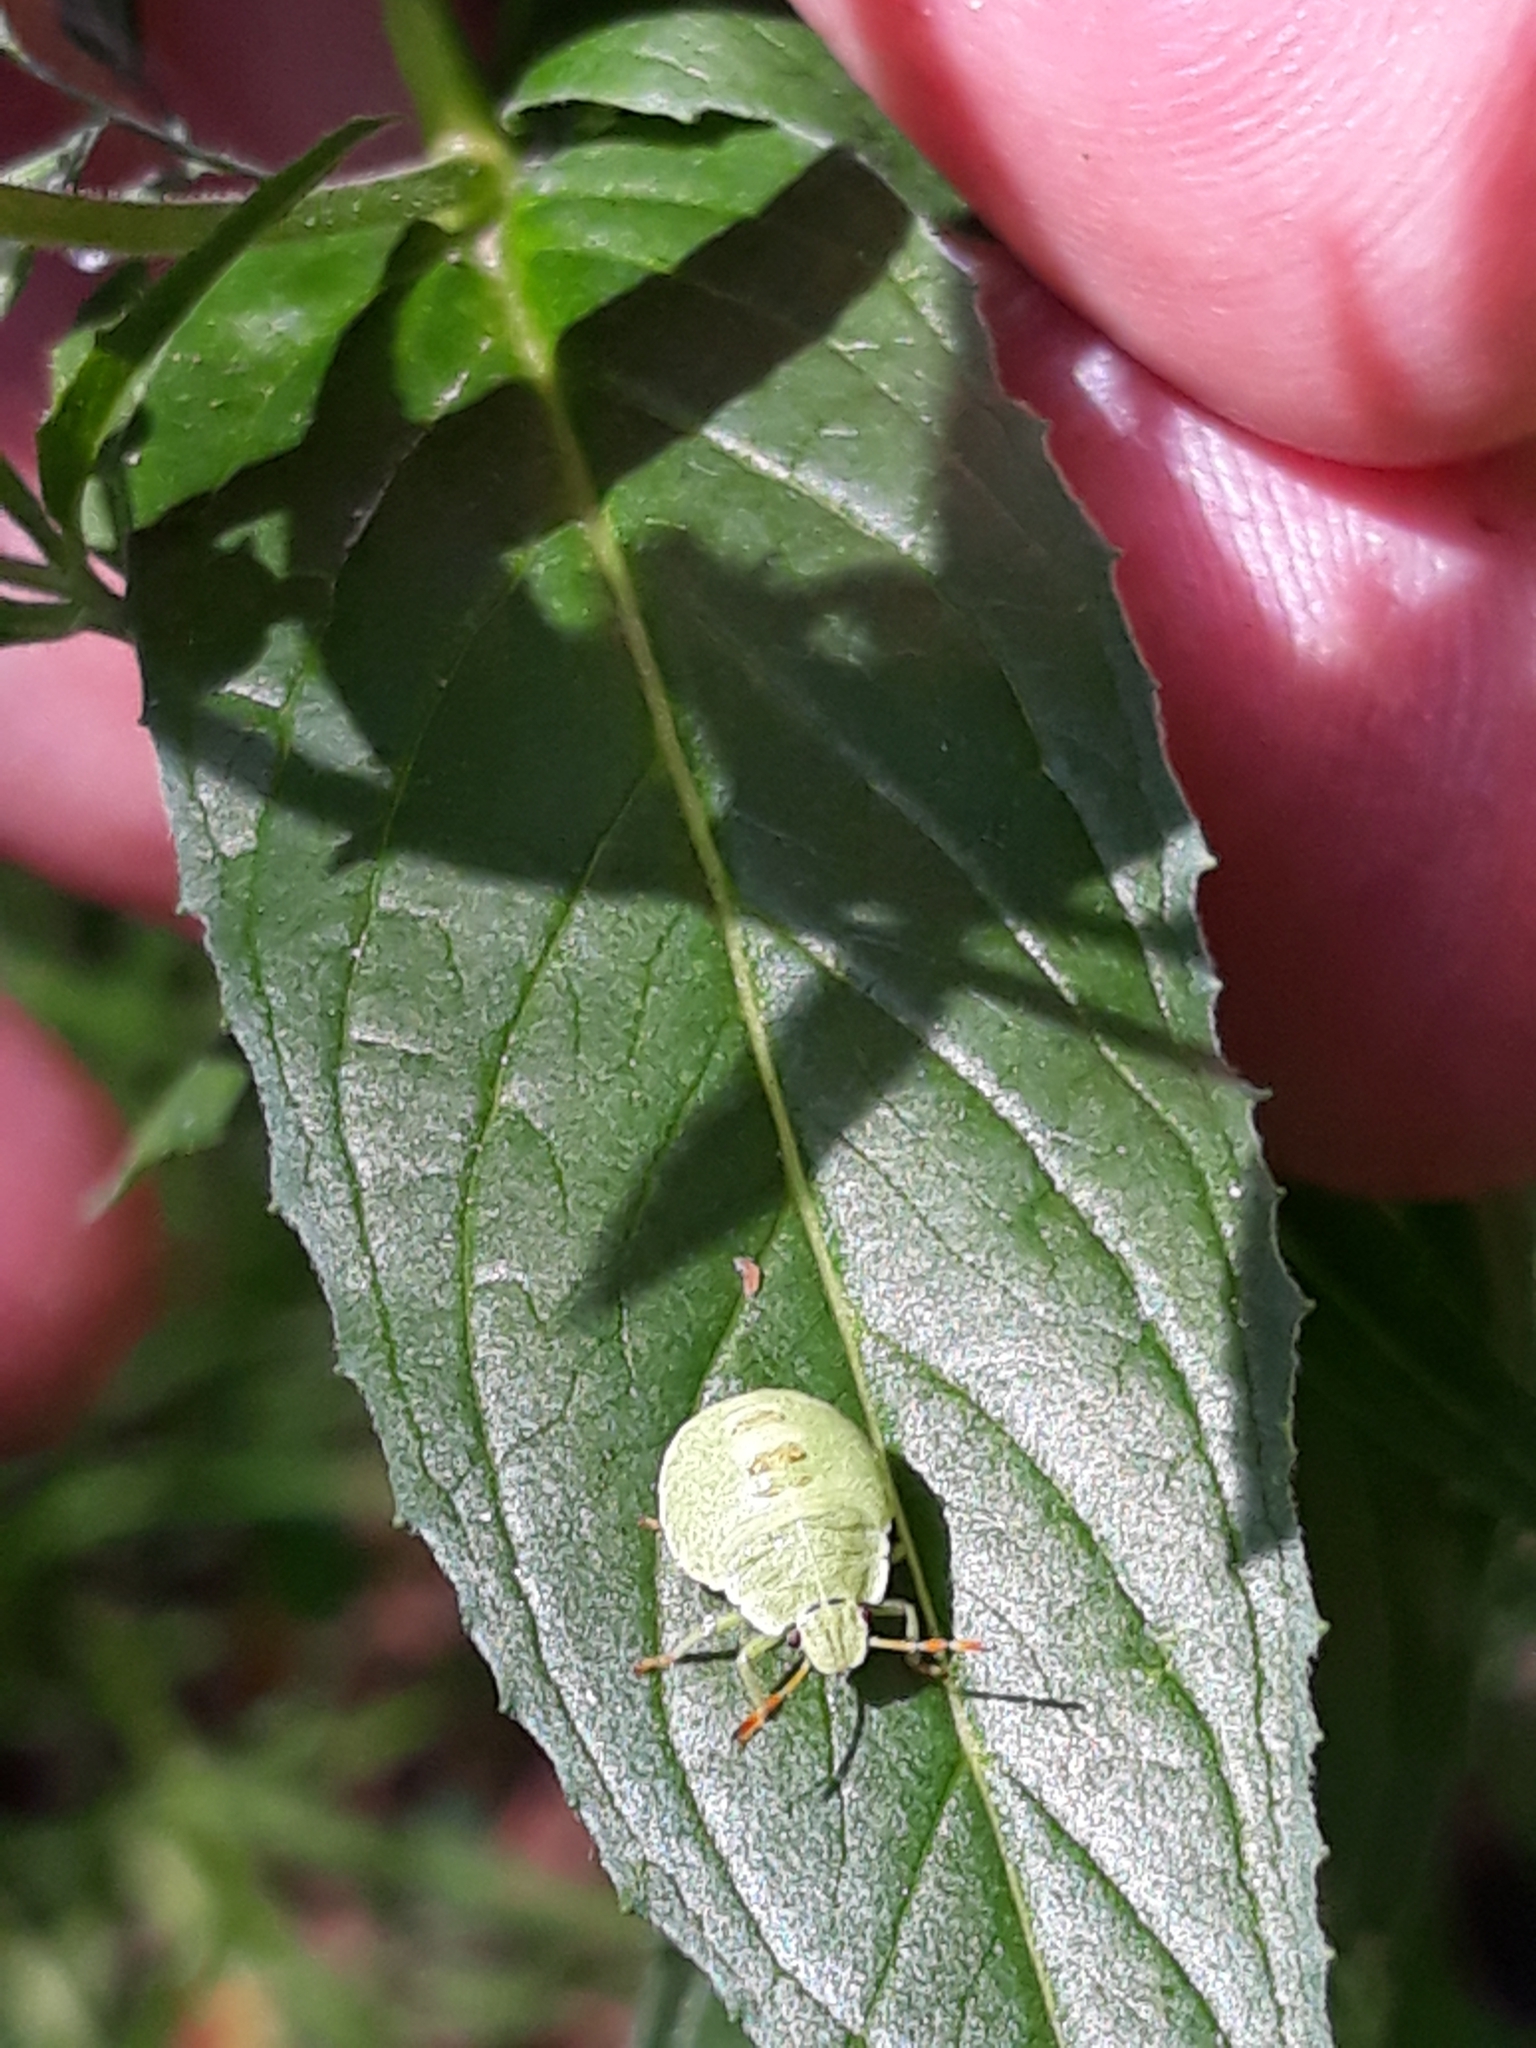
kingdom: Animalia
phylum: Arthropoda
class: Insecta
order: Hemiptera
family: Pentatomidae
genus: Palomena
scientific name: Palomena prasina
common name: Green shieldbug
